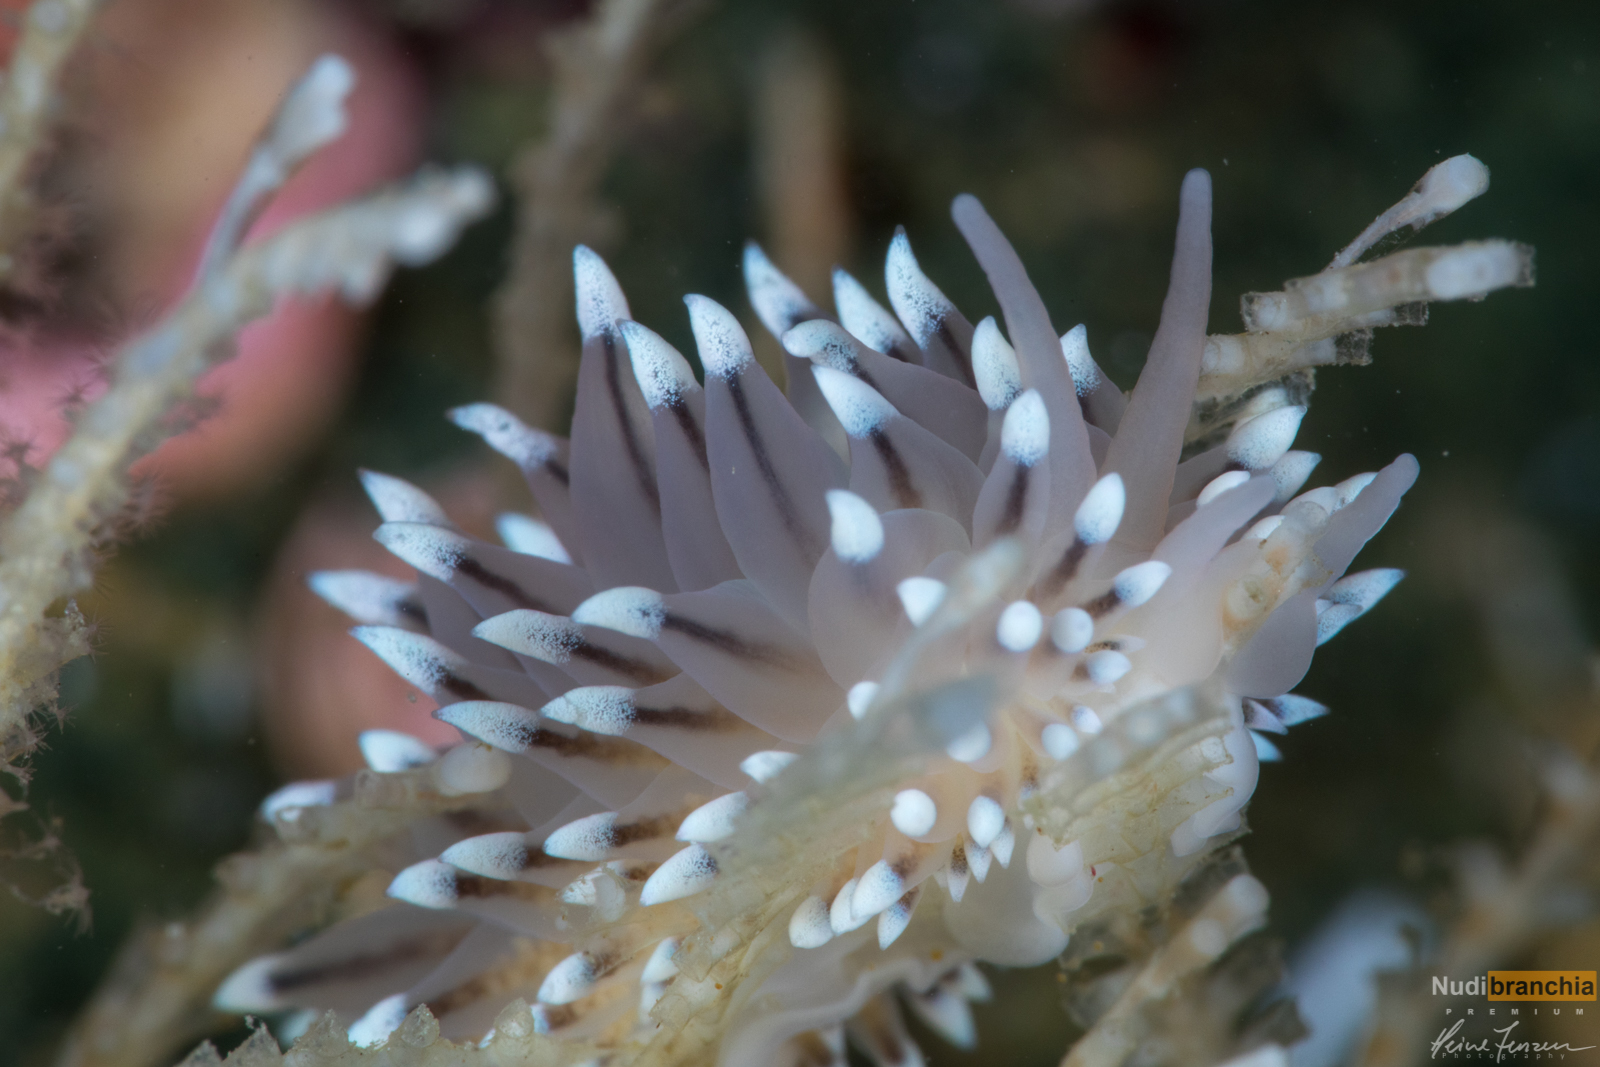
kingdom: Animalia
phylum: Mollusca
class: Gastropoda
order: Nudibranchia
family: Eubranchidae
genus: Eubranchus
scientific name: Eubranchus tricolor
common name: Painted balloon aeolis
